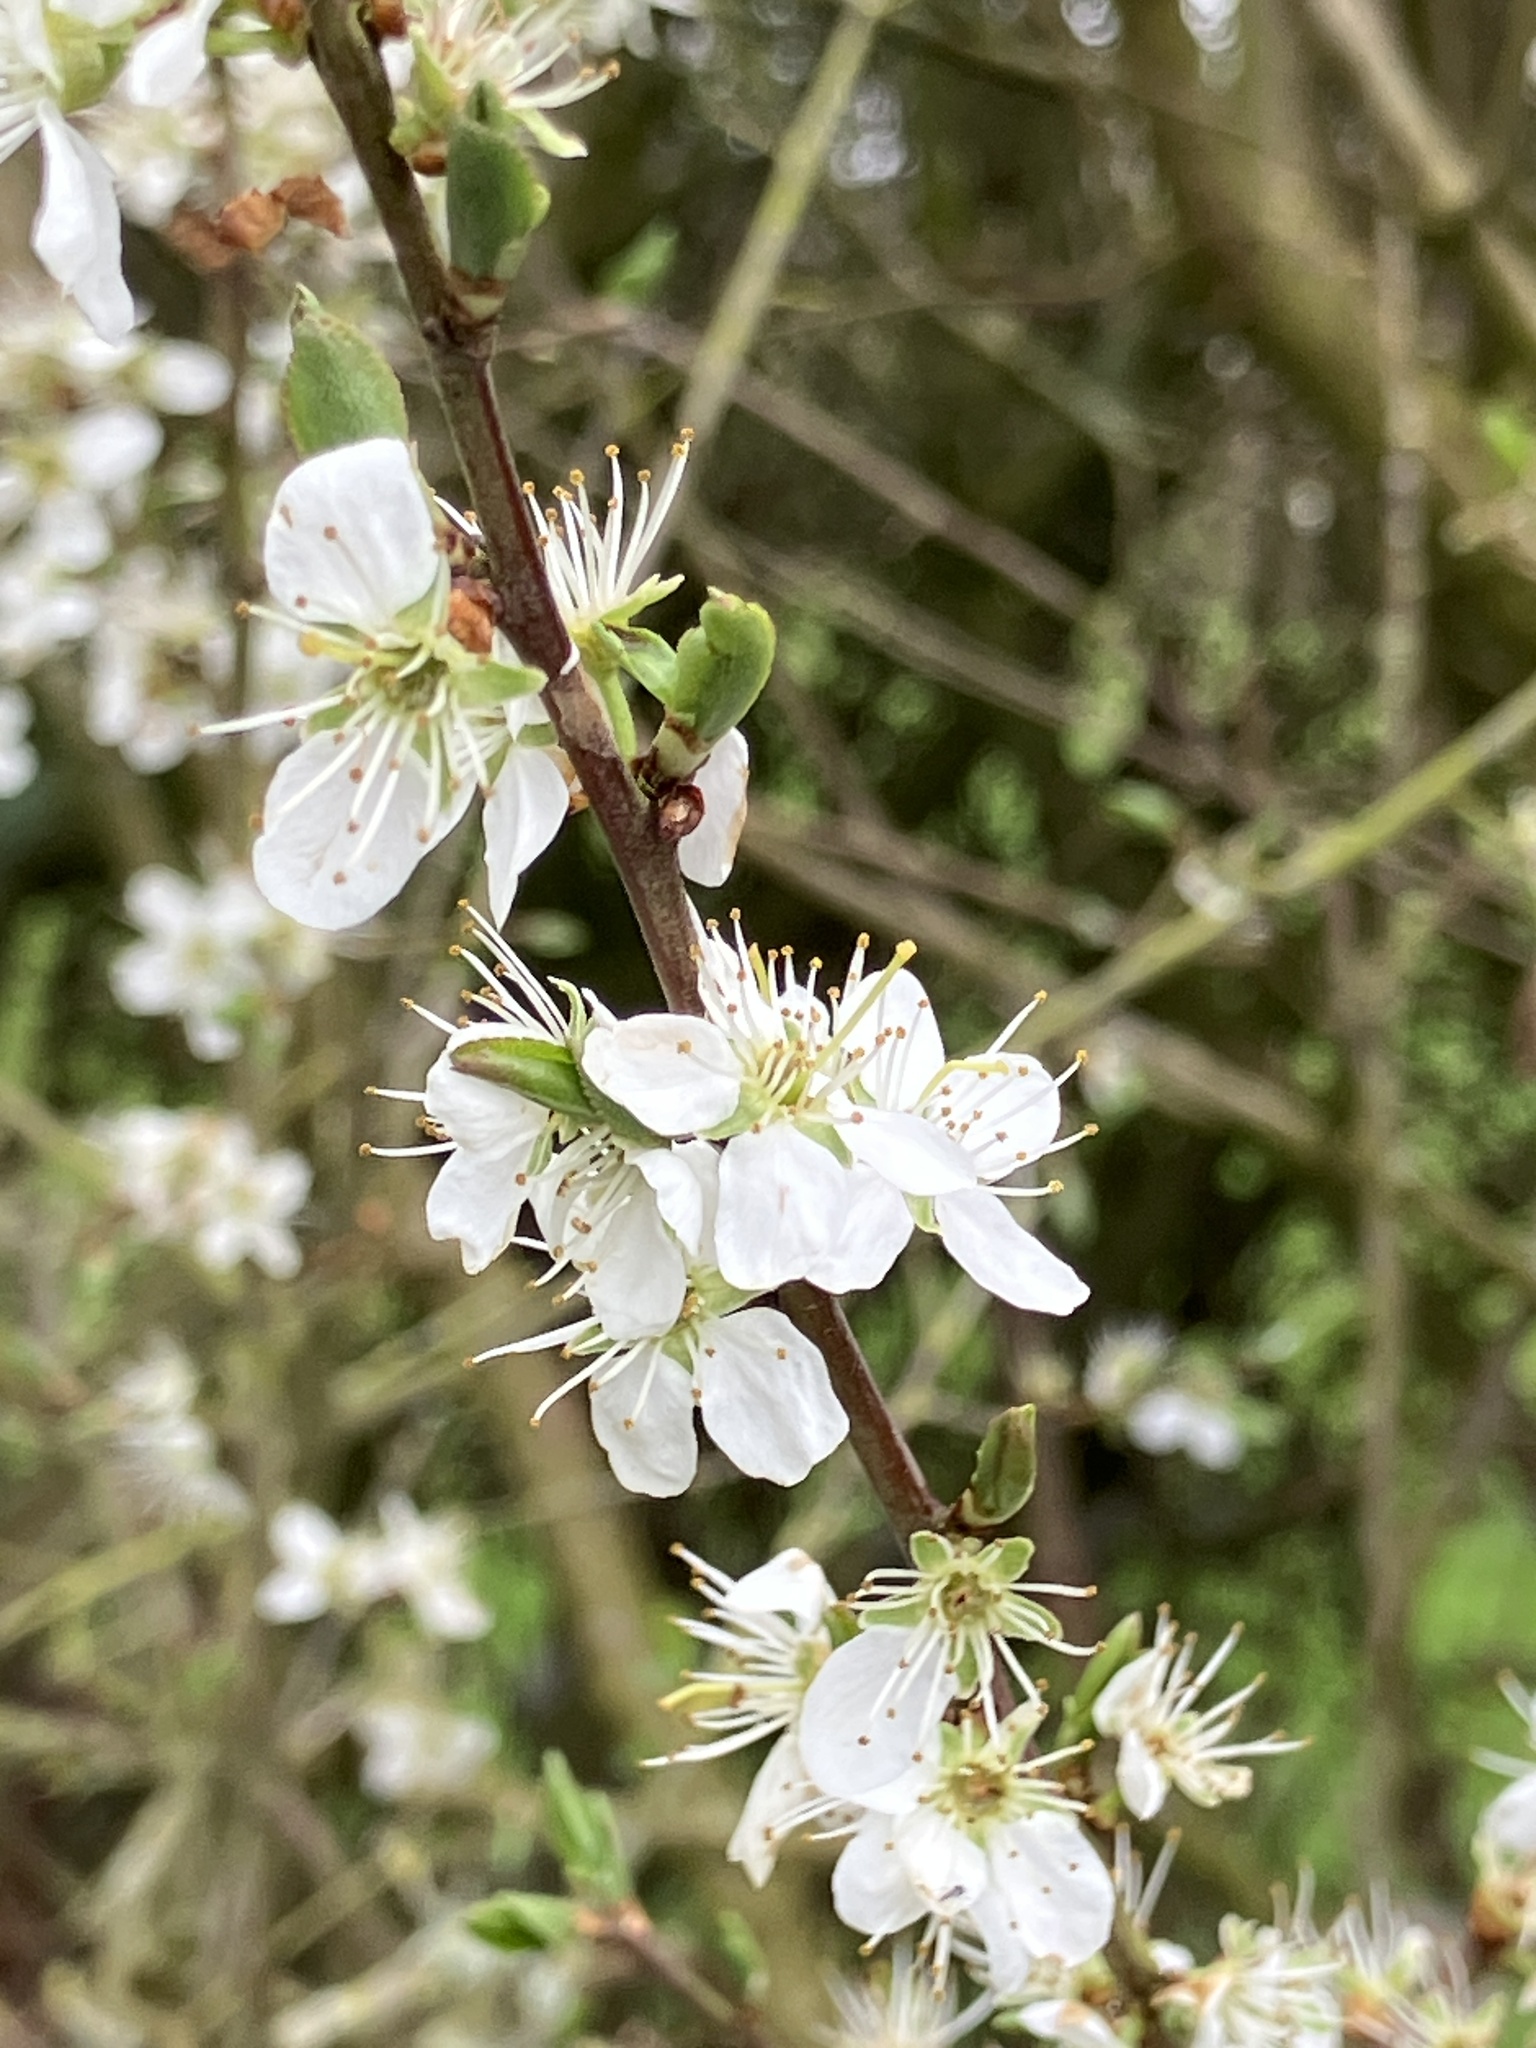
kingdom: Plantae
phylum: Tracheophyta
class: Magnoliopsida
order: Rosales
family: Rosaceae
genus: Prunus
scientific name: Prunus spinosa
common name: Blackthorn
